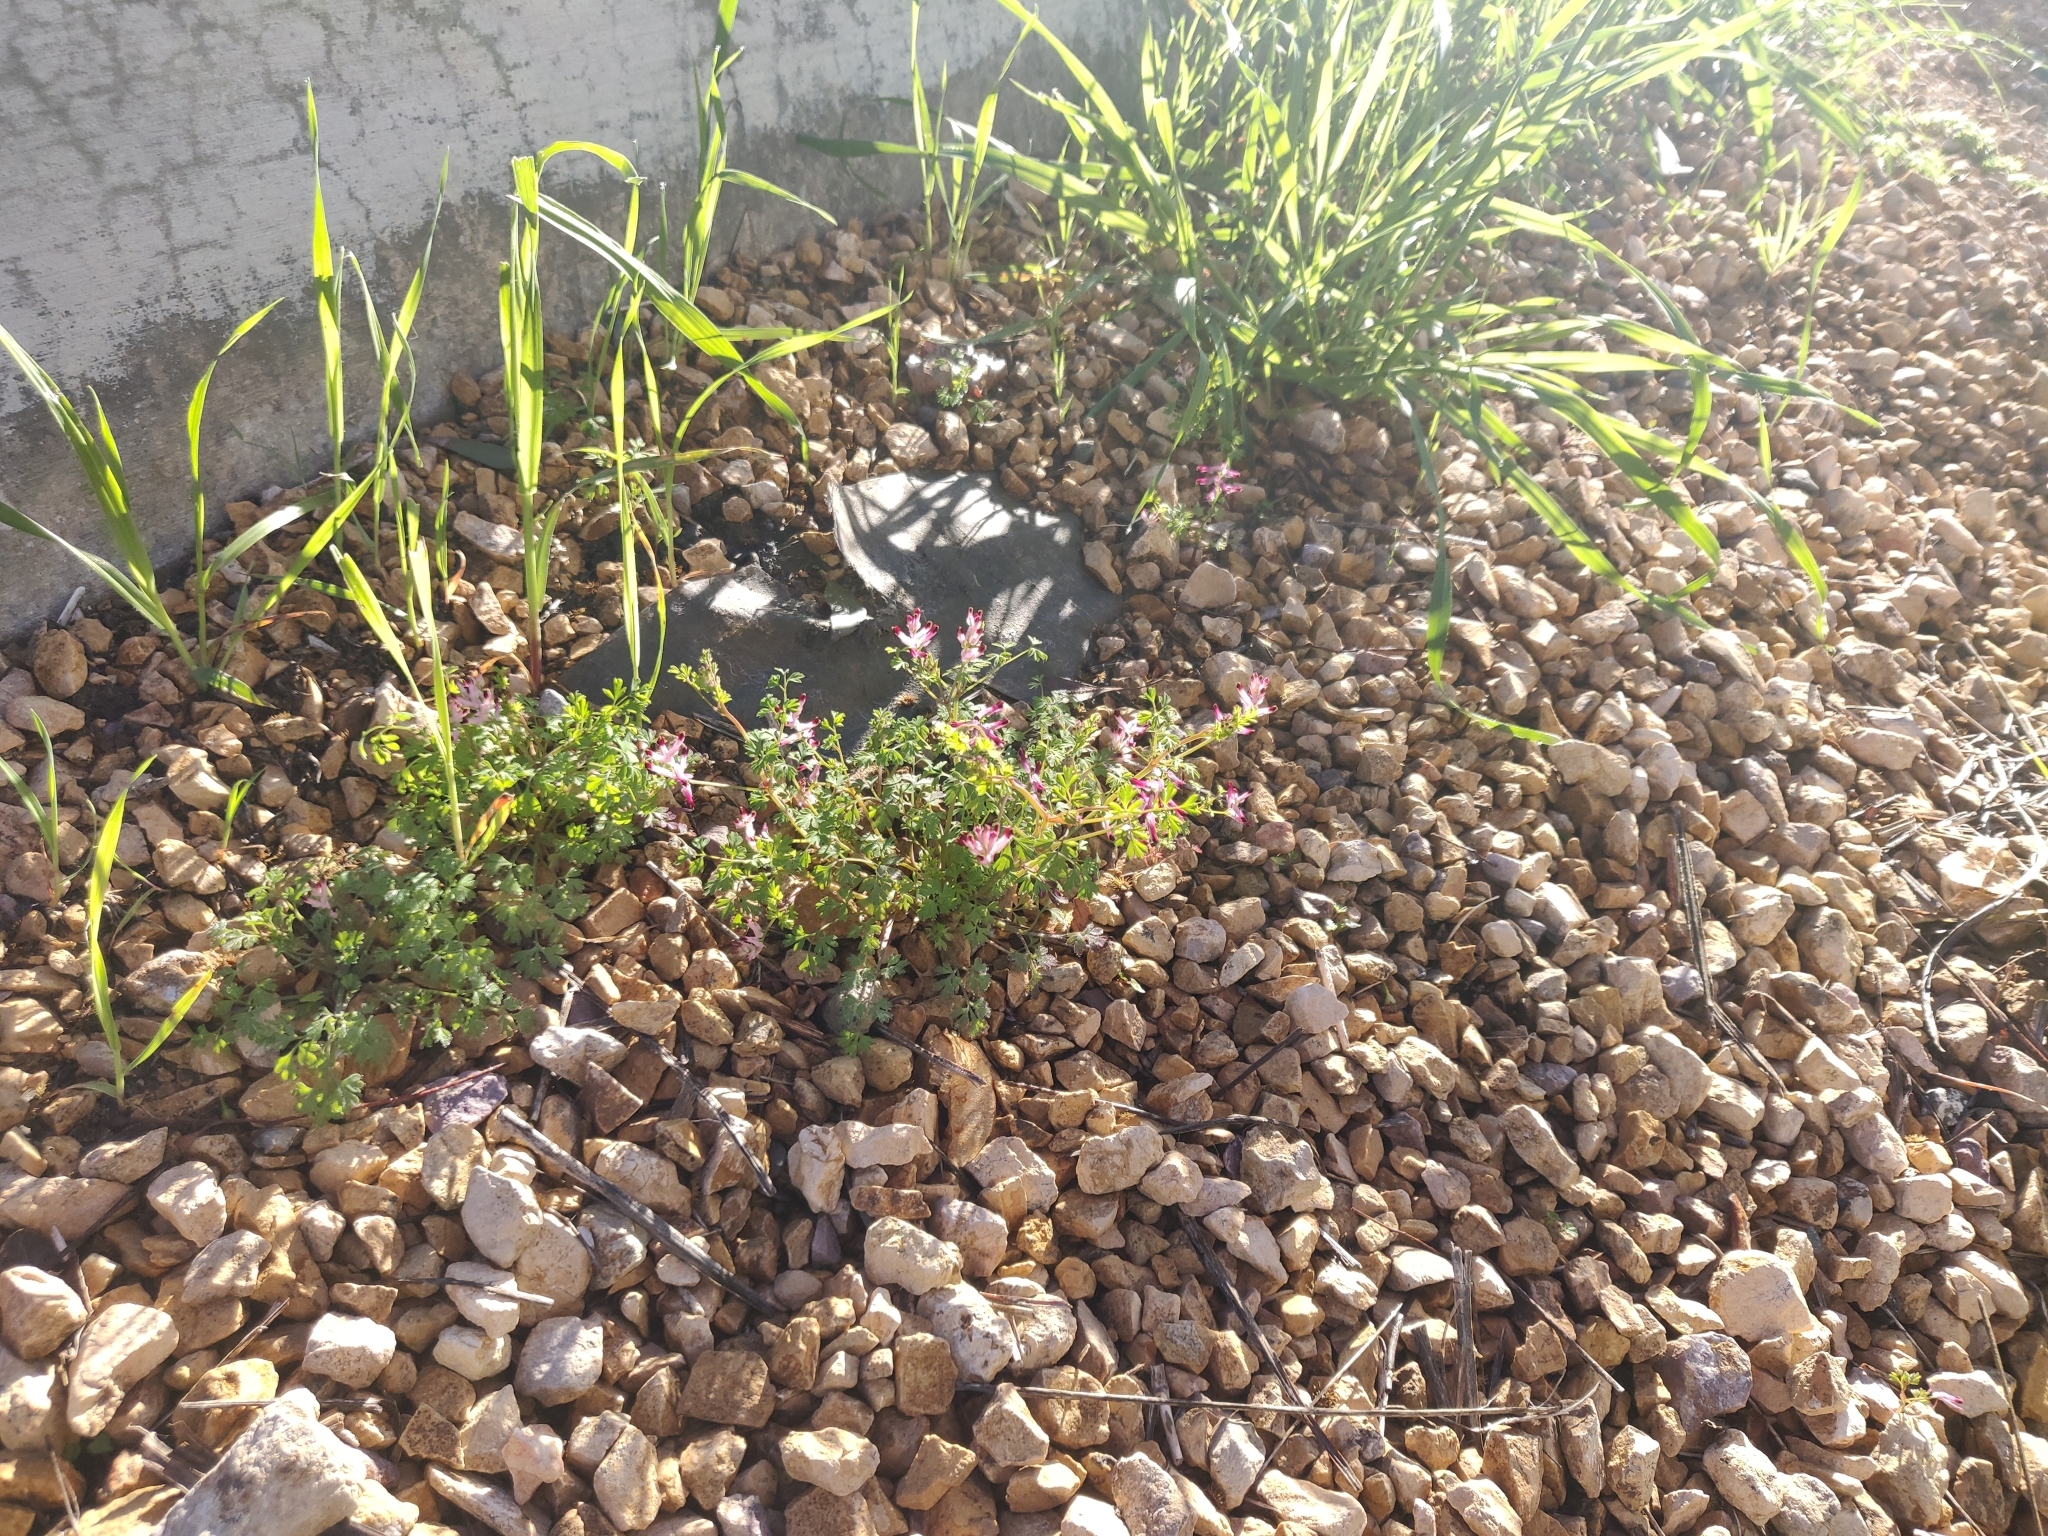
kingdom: Plantae
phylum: Tracheophyta
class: Magnoliopsida
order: Ranunculales
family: Papaveraceae
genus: Fumaria
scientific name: Fumaria muralis
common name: Common ramping-fumitory
